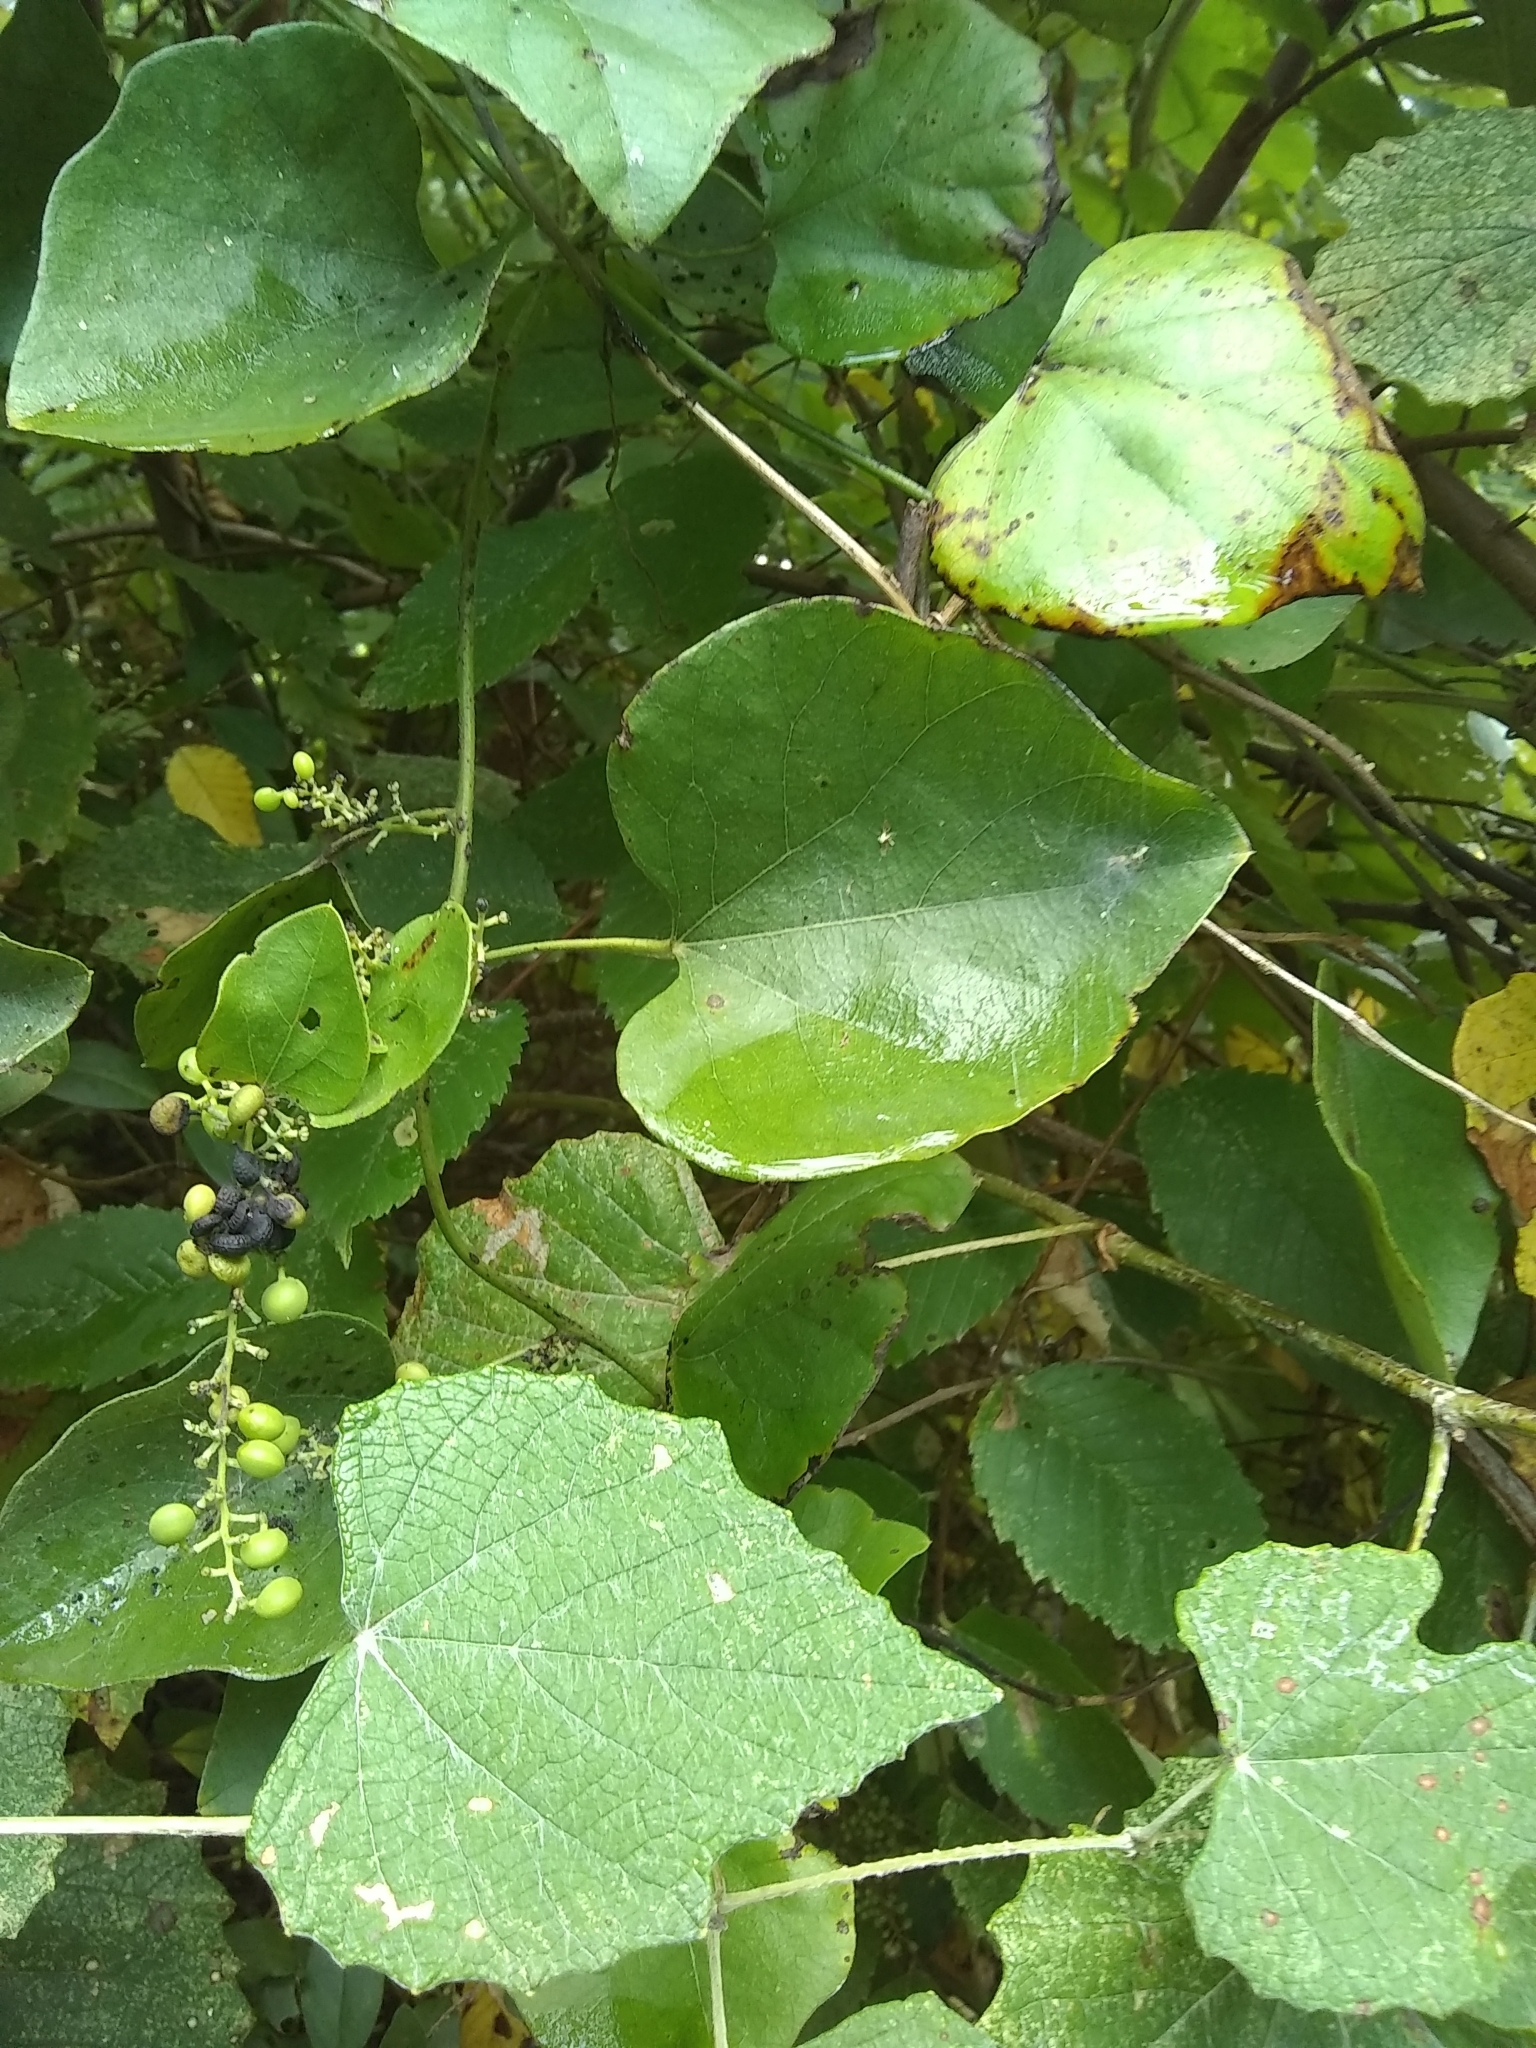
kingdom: Plantae
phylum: Tracheophyta
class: Magnoliopsida
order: Ranunculales
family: Menispermaceae
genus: Cocculus
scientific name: Cocculus carolinus
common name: Carolina moonseed
